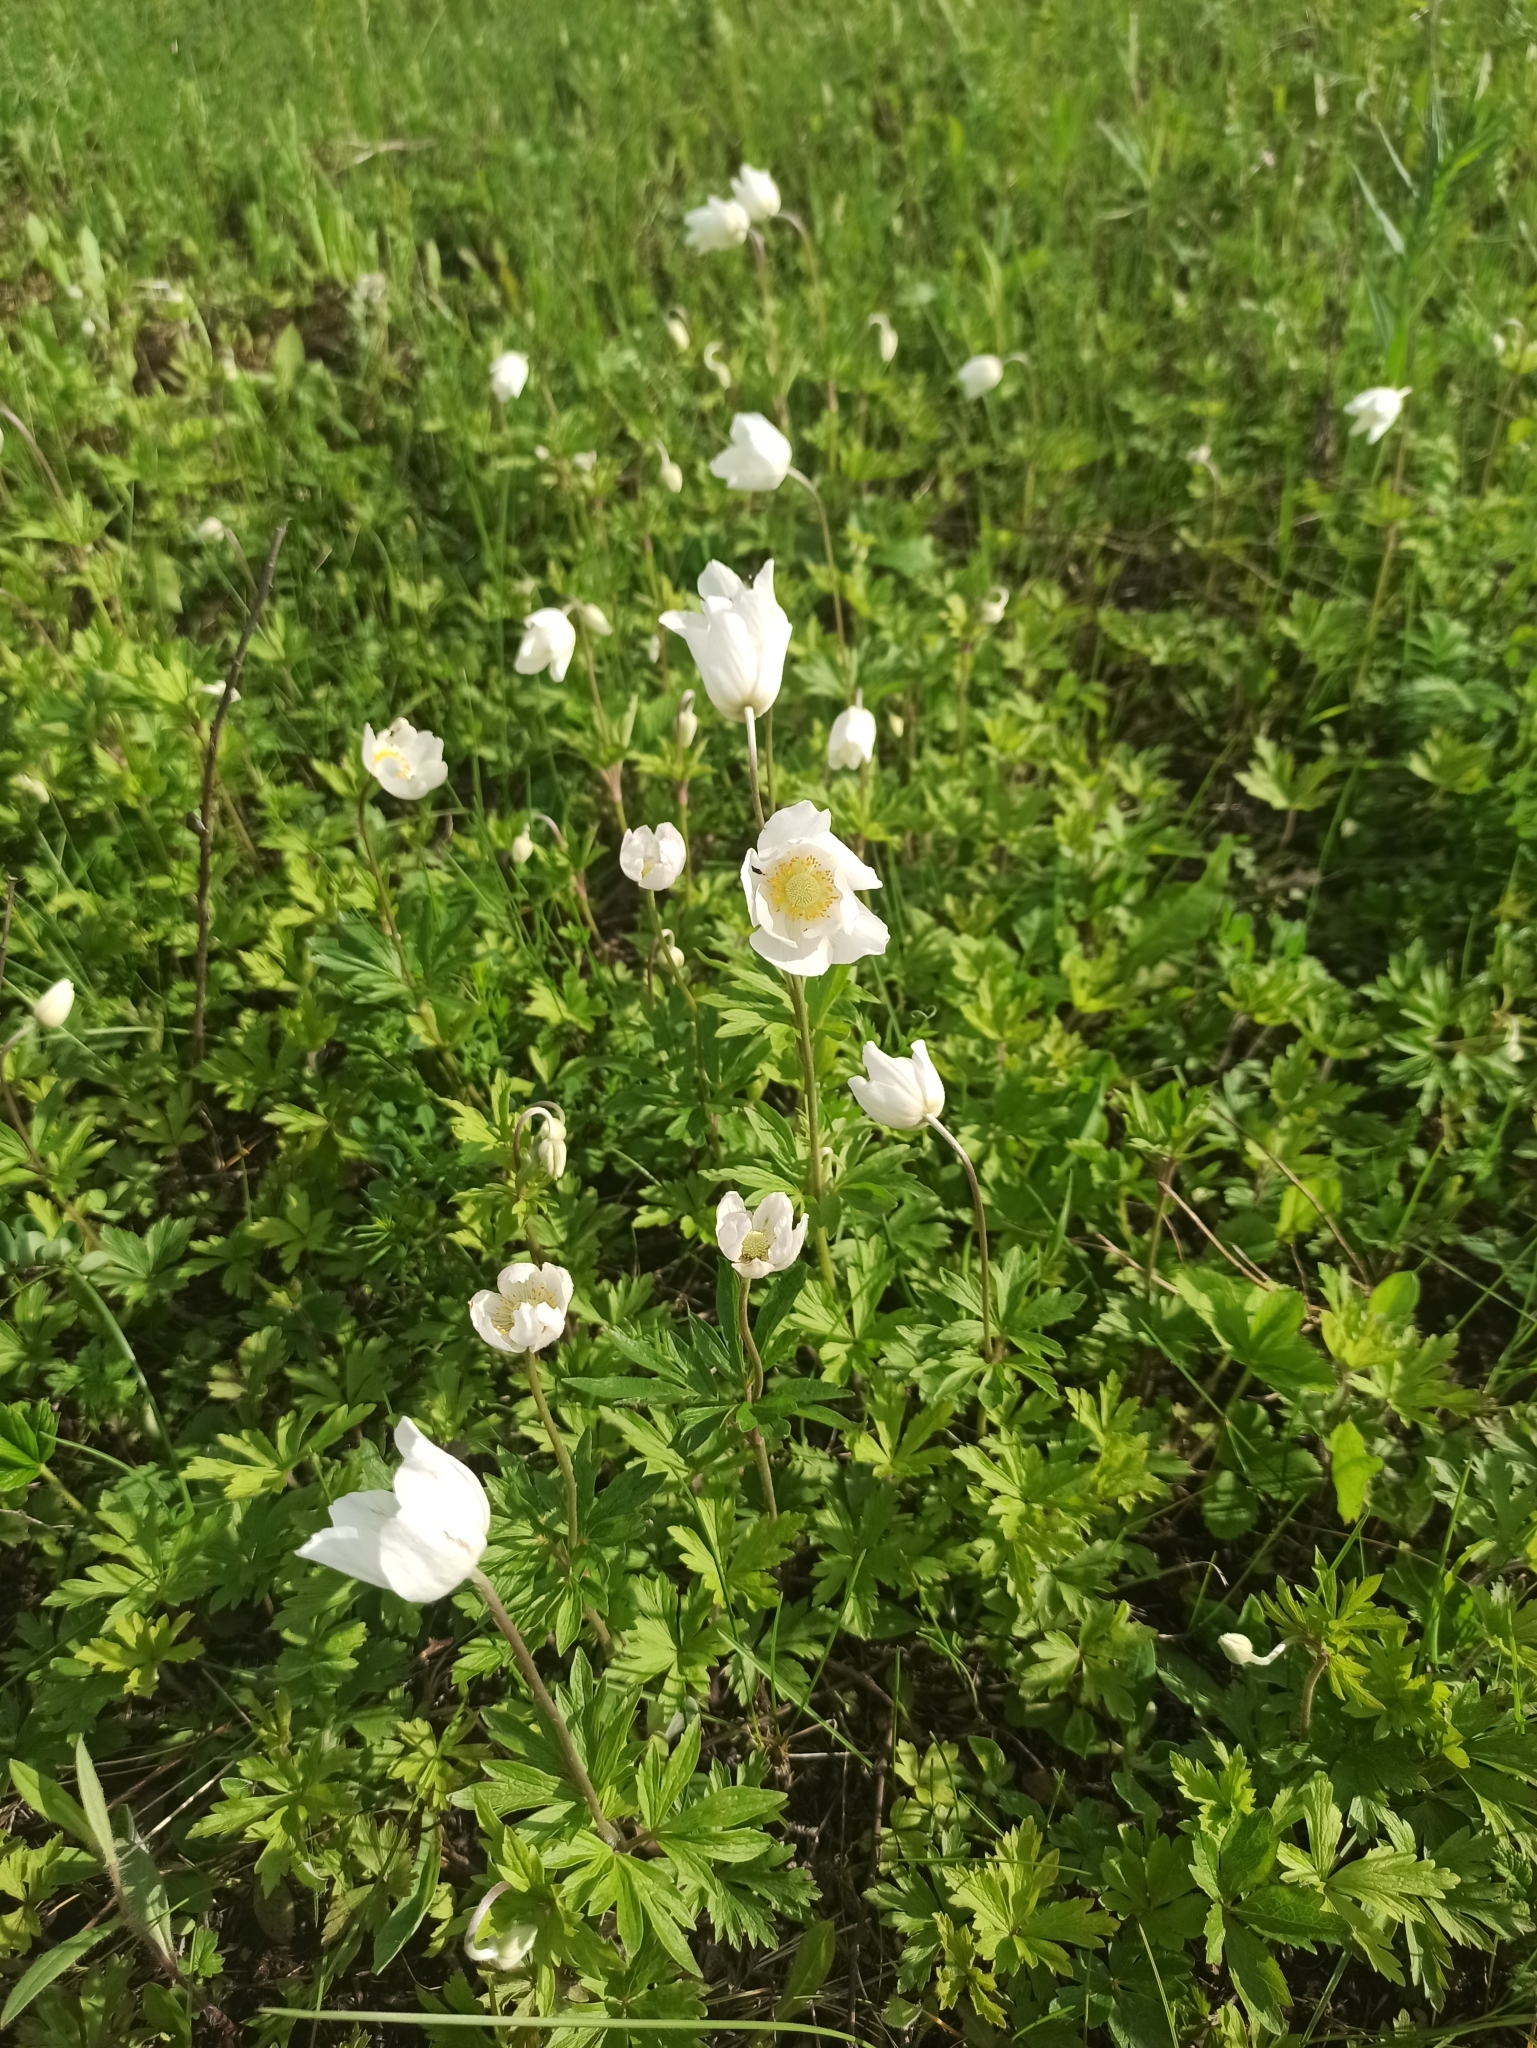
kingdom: Plantae
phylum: Tracheophyta
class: Magnoliopsida
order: Ranunculales
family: Ranunculaceae
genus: Anemone
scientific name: Anemone sylvestris
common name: Snowdrop anemone
